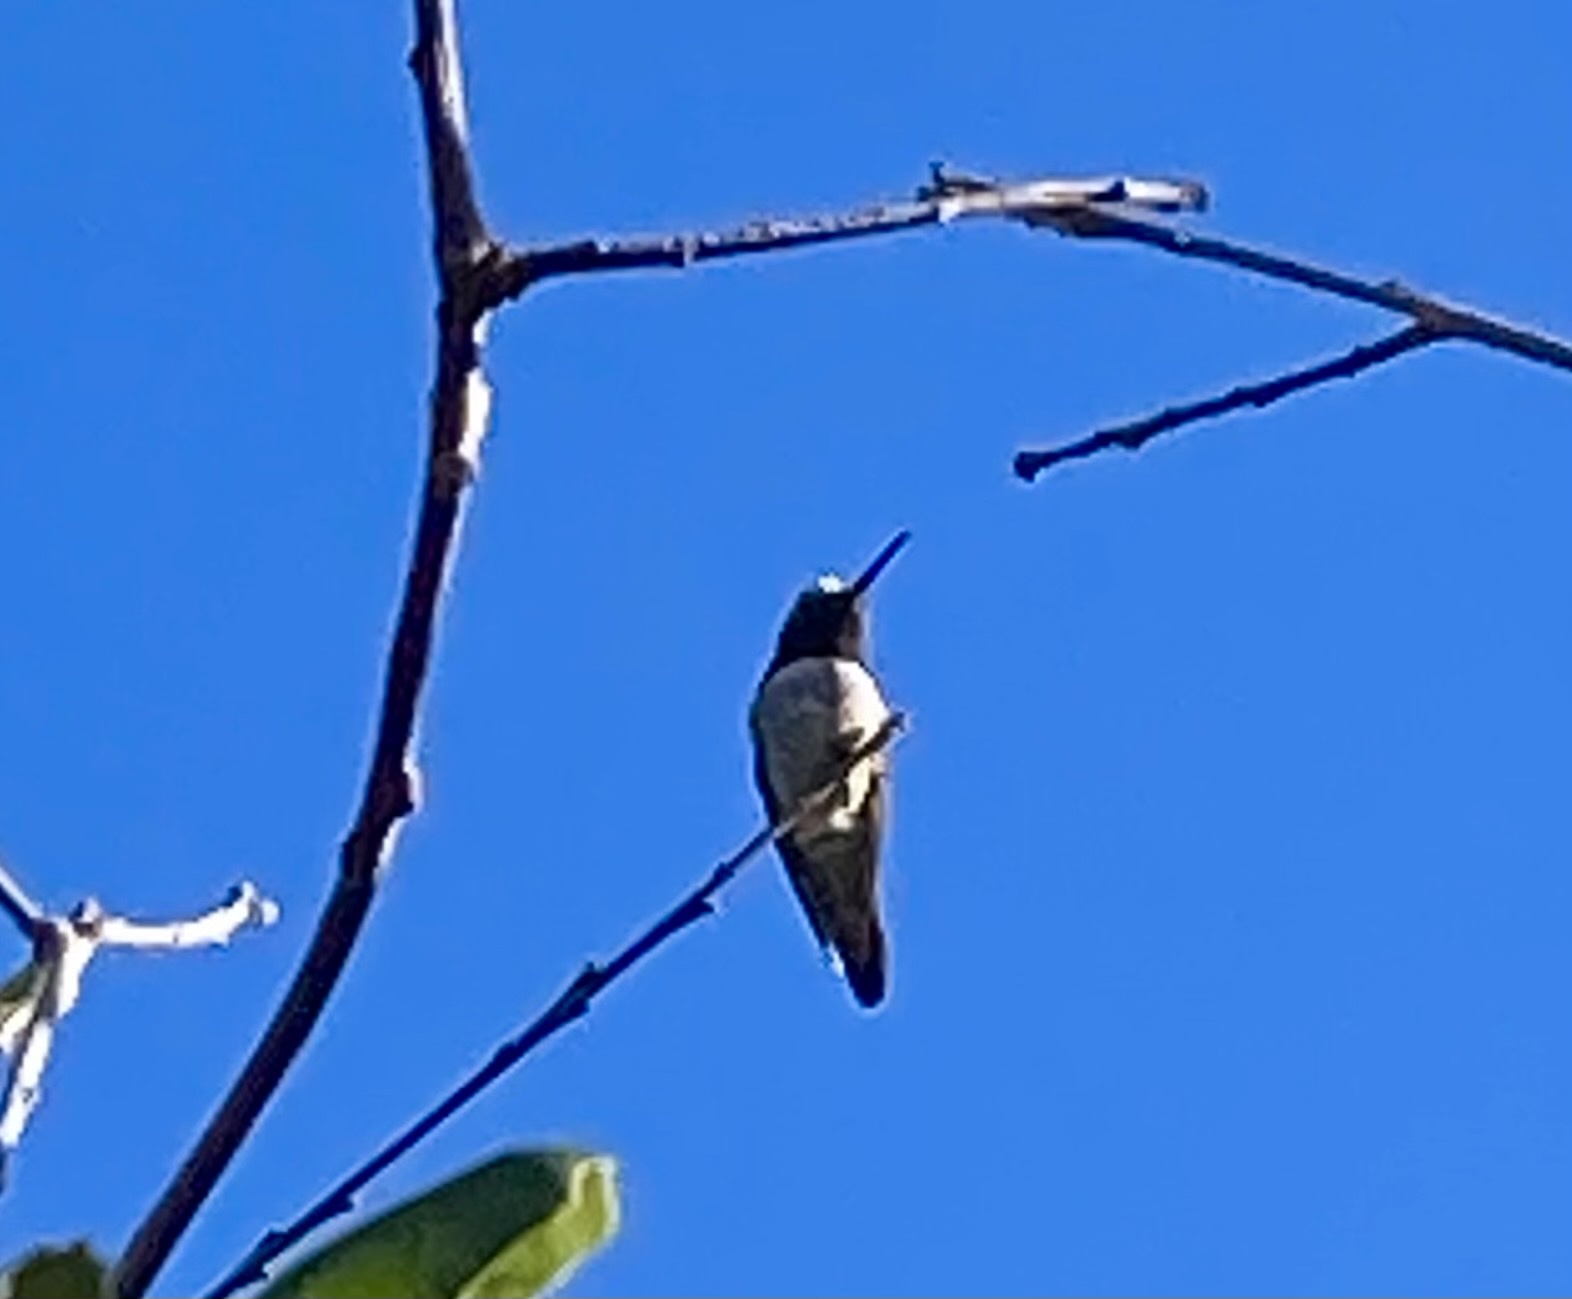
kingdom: Animalia
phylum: Chordata
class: Aves
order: Apodiformes
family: Trochilidae
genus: Calypte
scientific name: Calypte anna
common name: Anna's hummingbird
